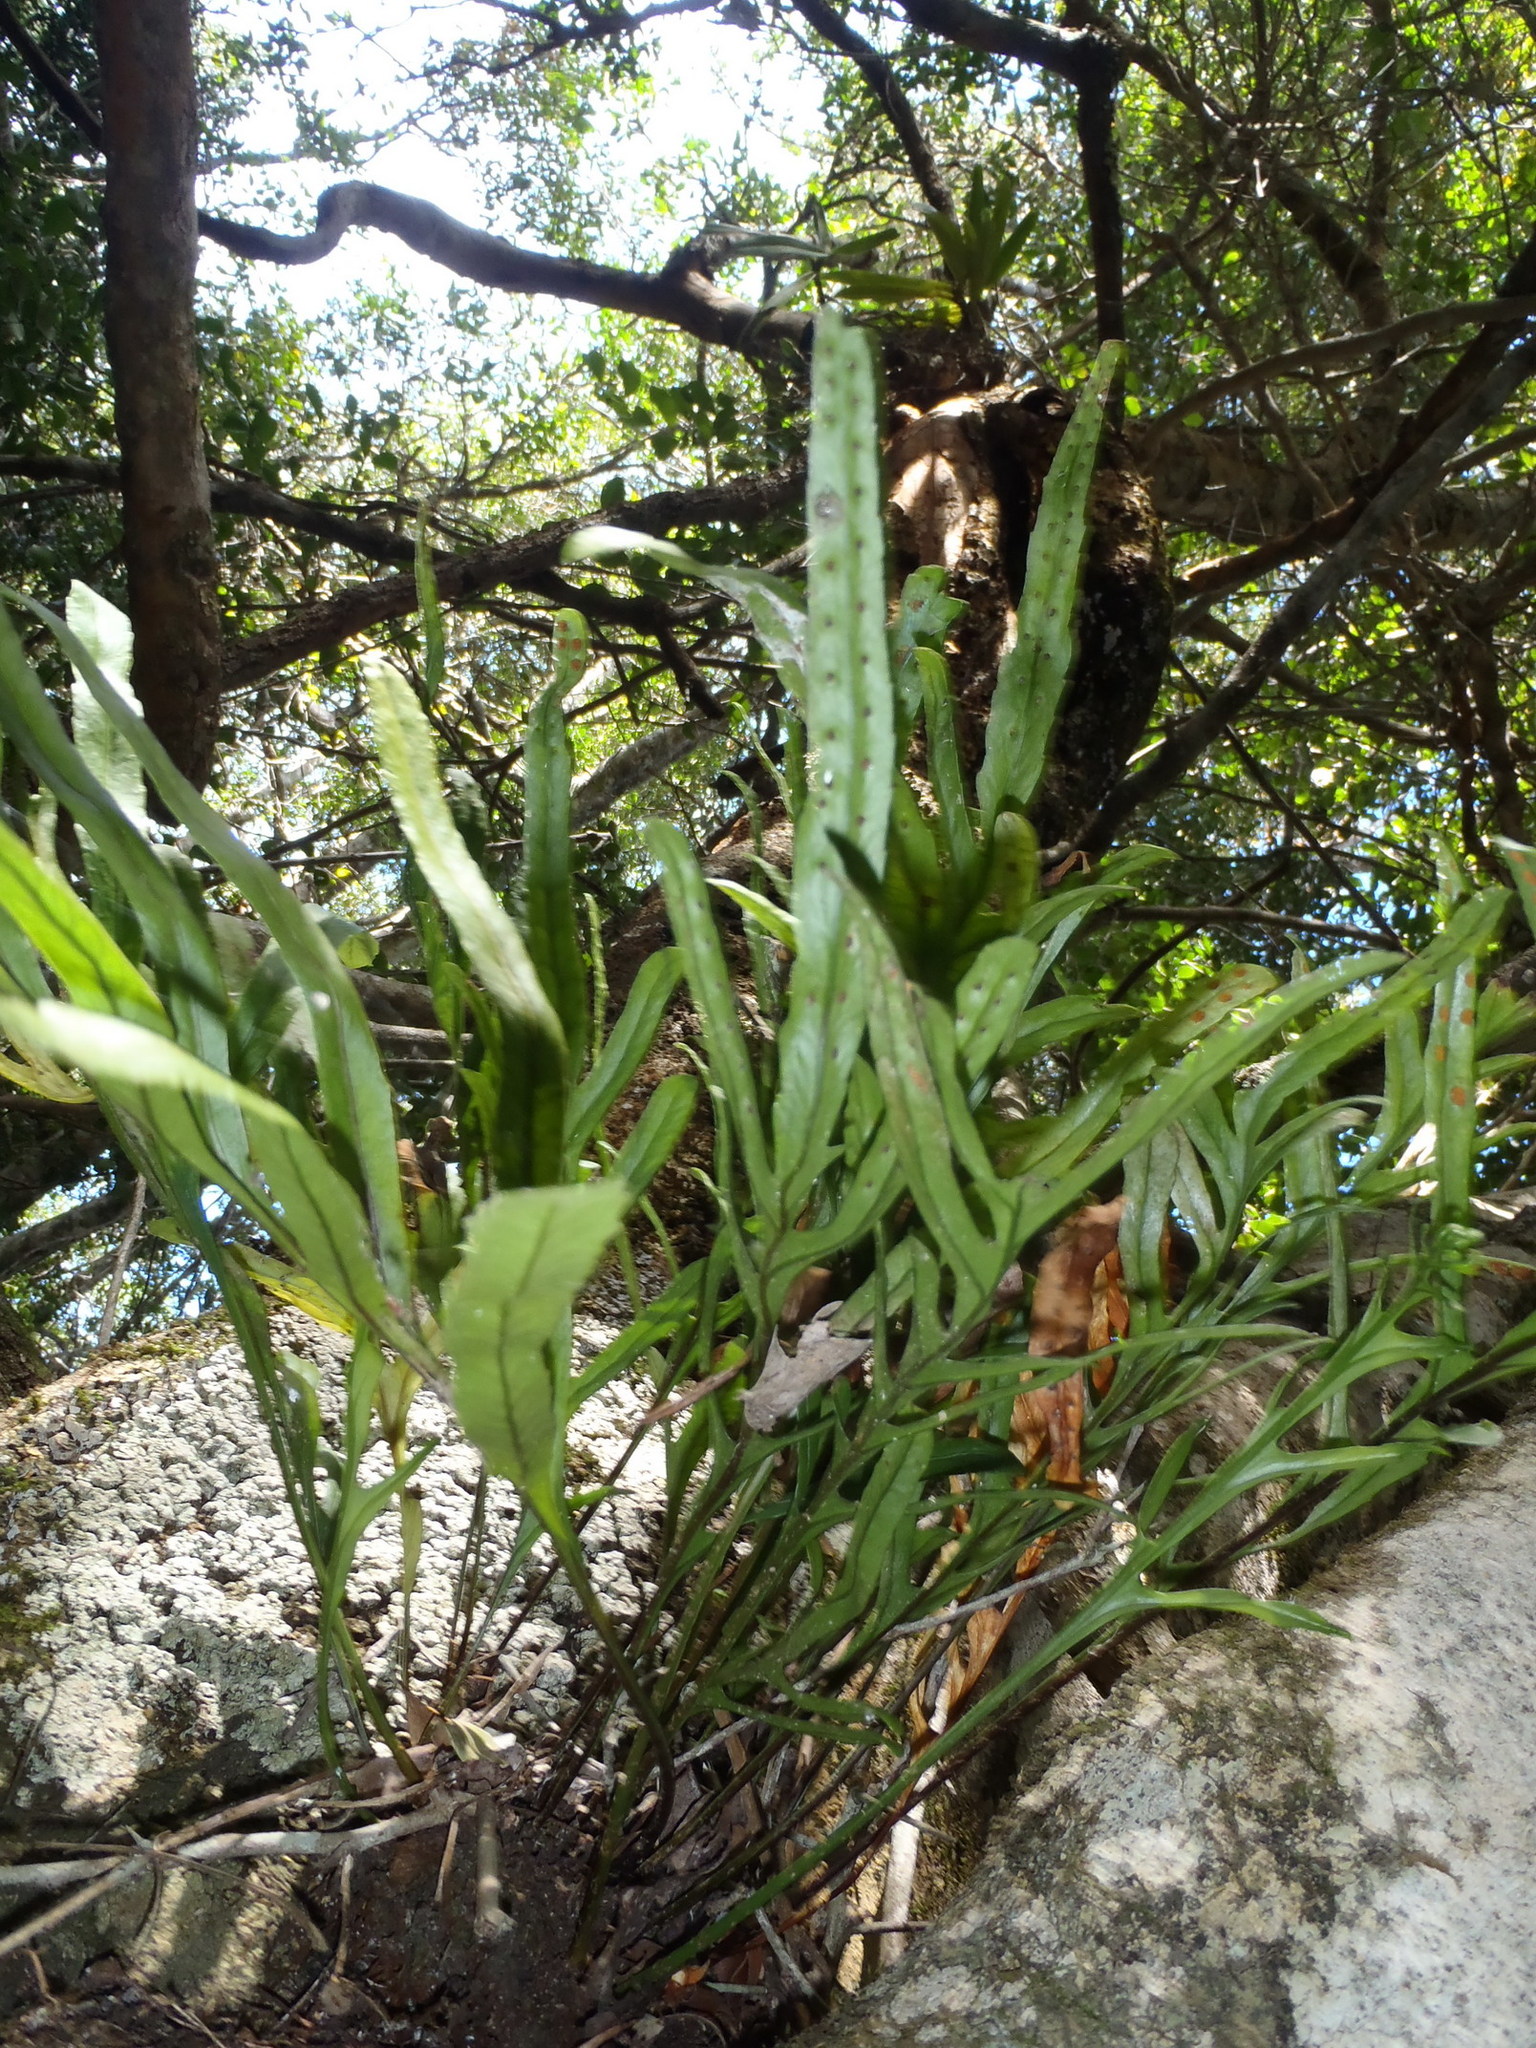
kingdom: Plantae
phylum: Tracheophyta
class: Polypodiopsida
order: Polypodiales
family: Polypodiaceae
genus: Polypodium
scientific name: Polypodium ensiforme
